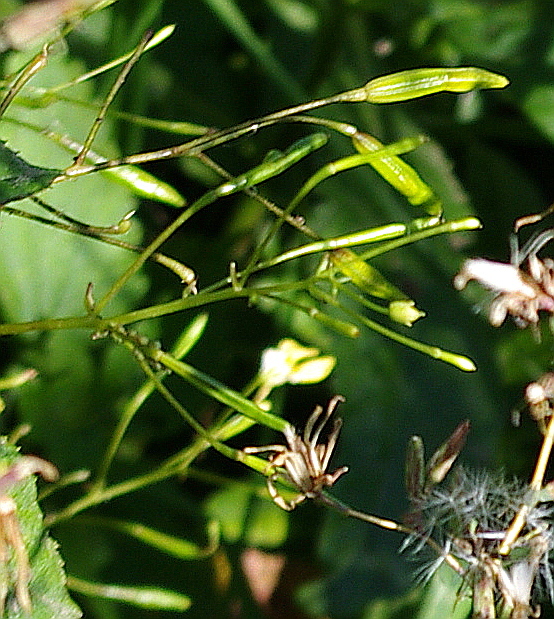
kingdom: Plantae
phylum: Tracheophyta
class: Magnoliopsida
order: Ericales
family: Balsaminaceae
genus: Impatiens
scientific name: Impatiens parviflora
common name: Small balsam
